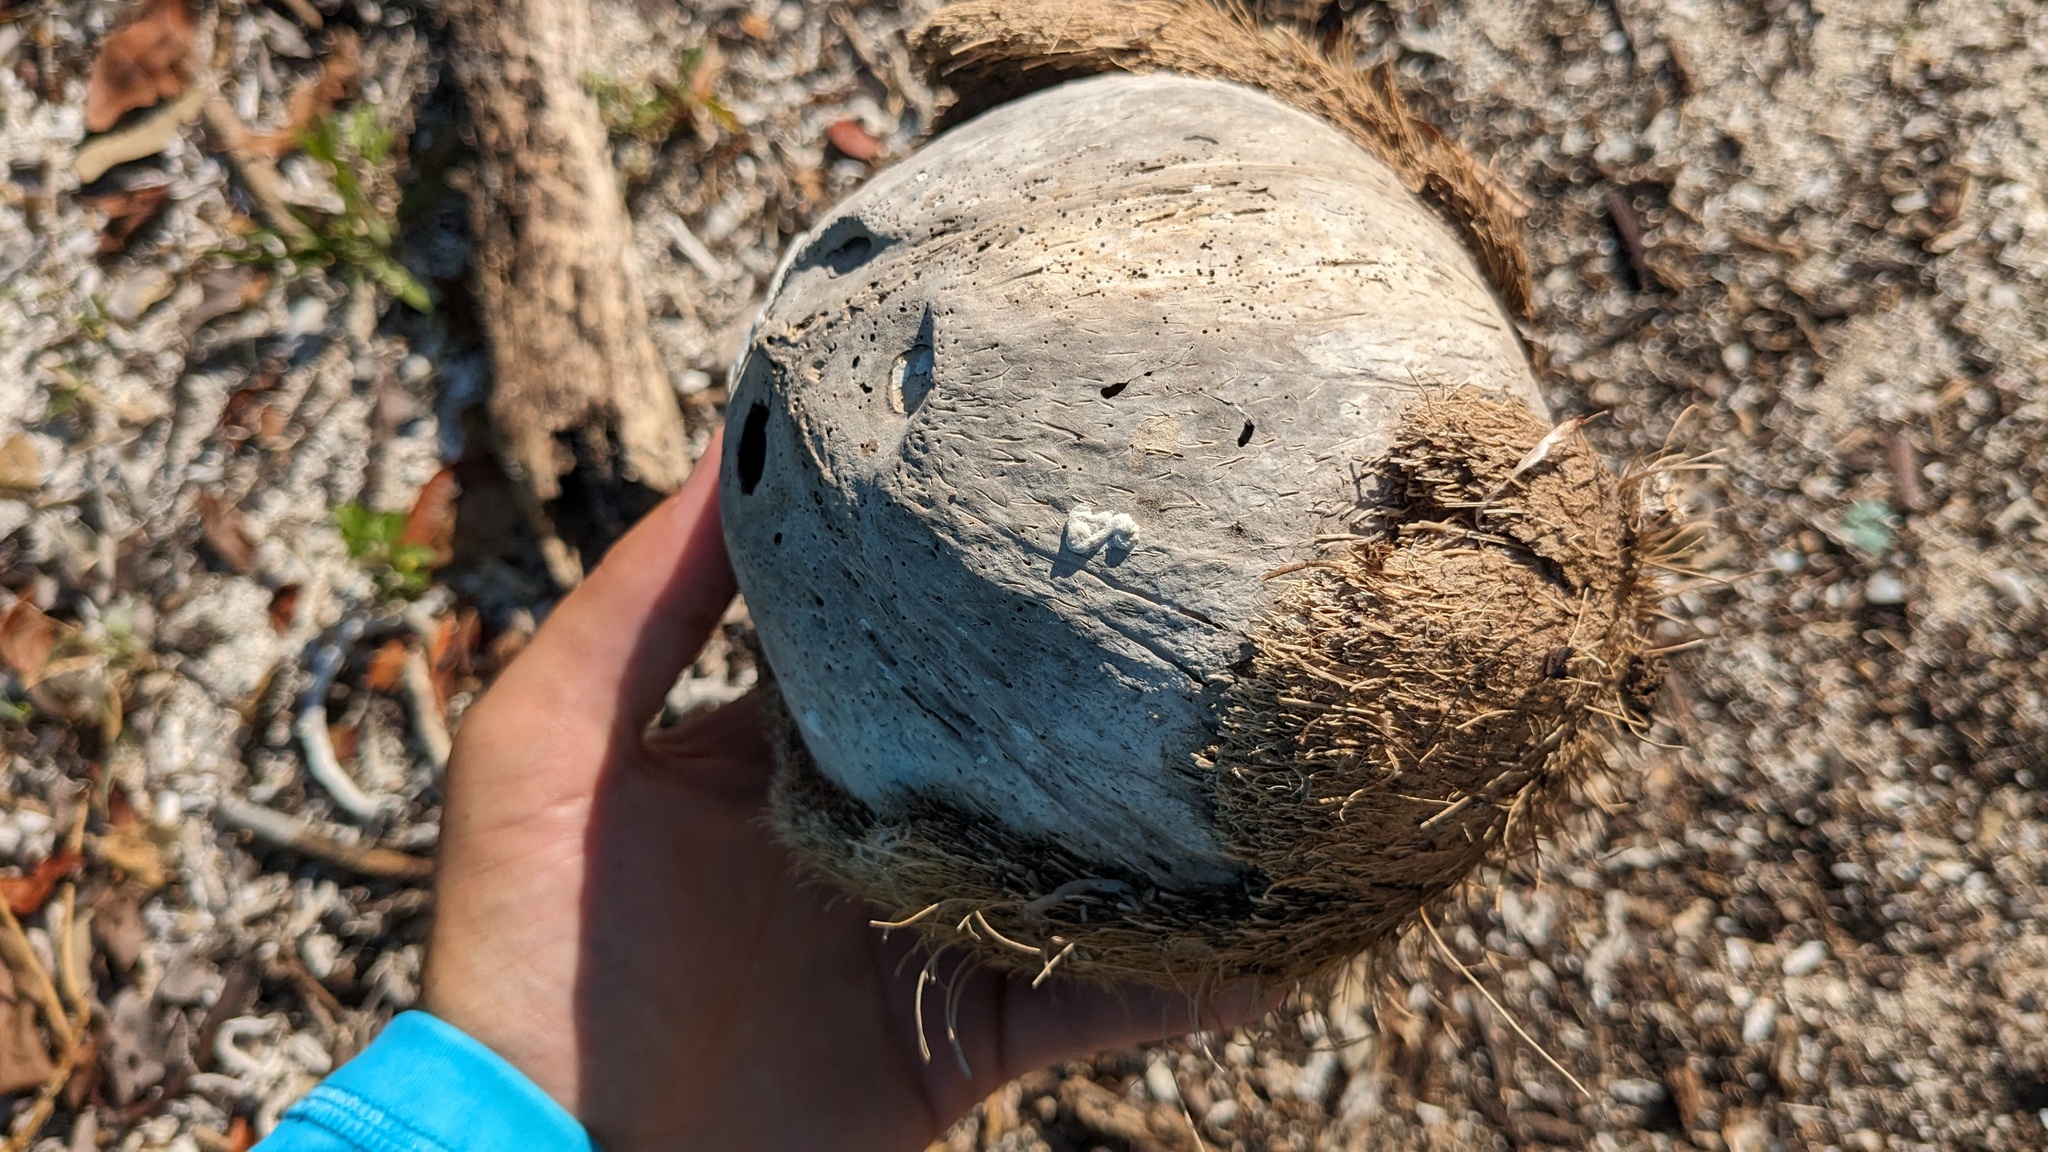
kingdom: Plantae
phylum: Tracheophyta
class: Liliopsida
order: Arecales
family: Arecaceae
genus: Cocos
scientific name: Cocos nucifera
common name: Coconut palm
